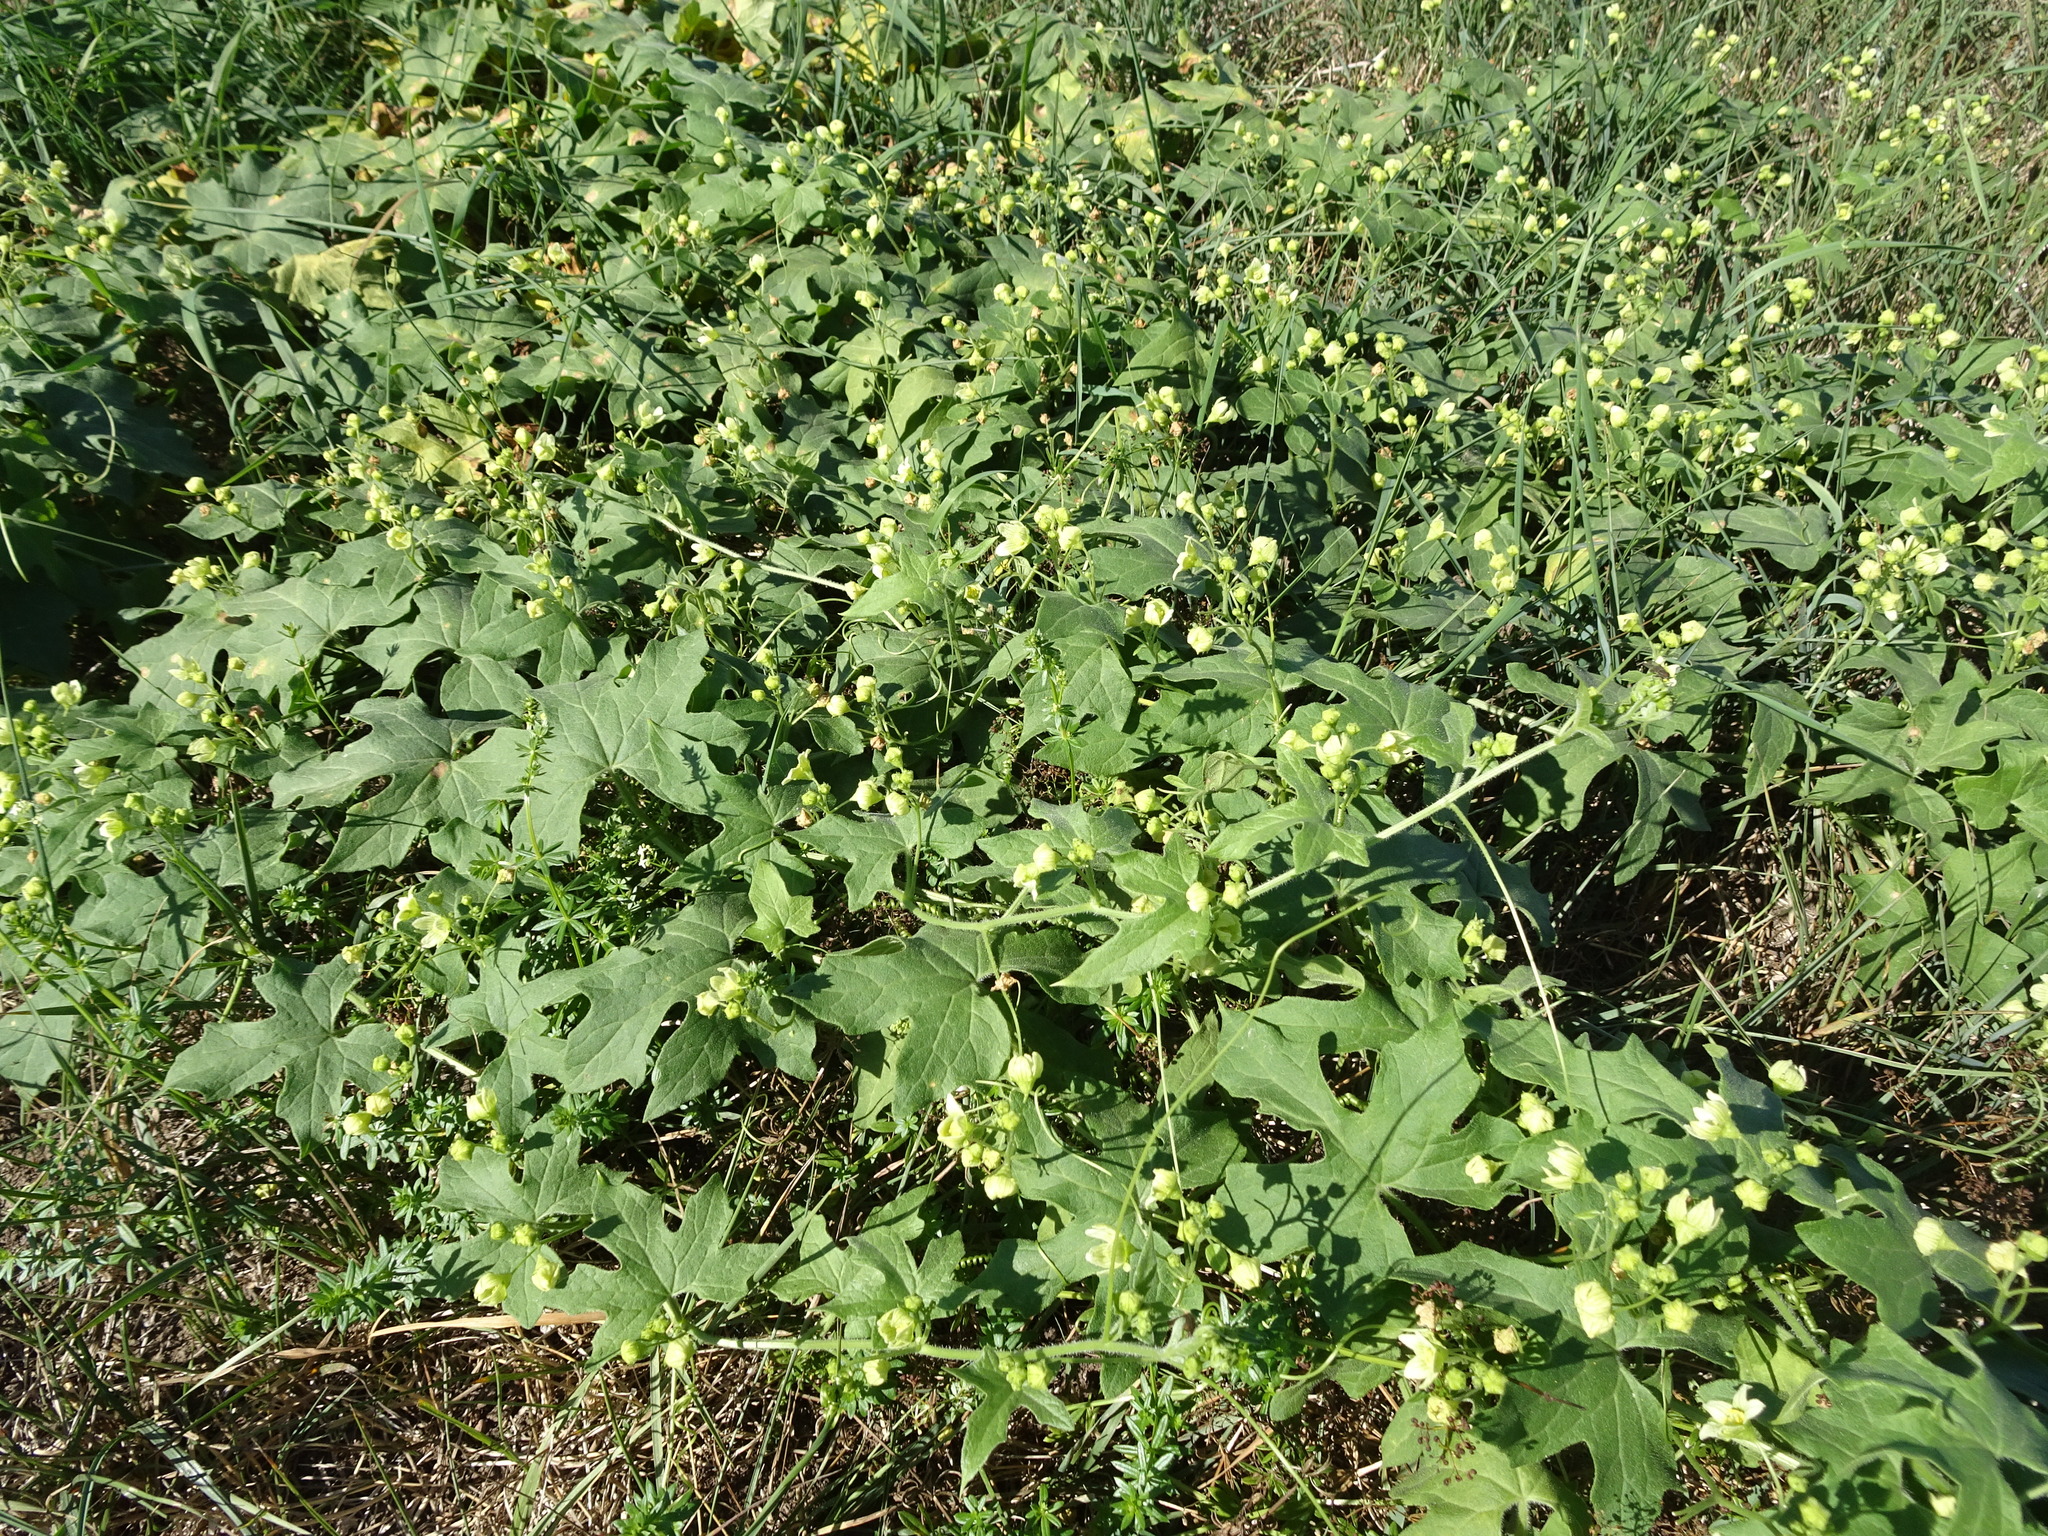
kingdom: Plantae
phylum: Tracheophyta
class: Magnoliopsida
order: Cucurbitales
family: Cucurbitaceae
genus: Bryonia
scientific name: Bryonia dioica
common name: White bryony
